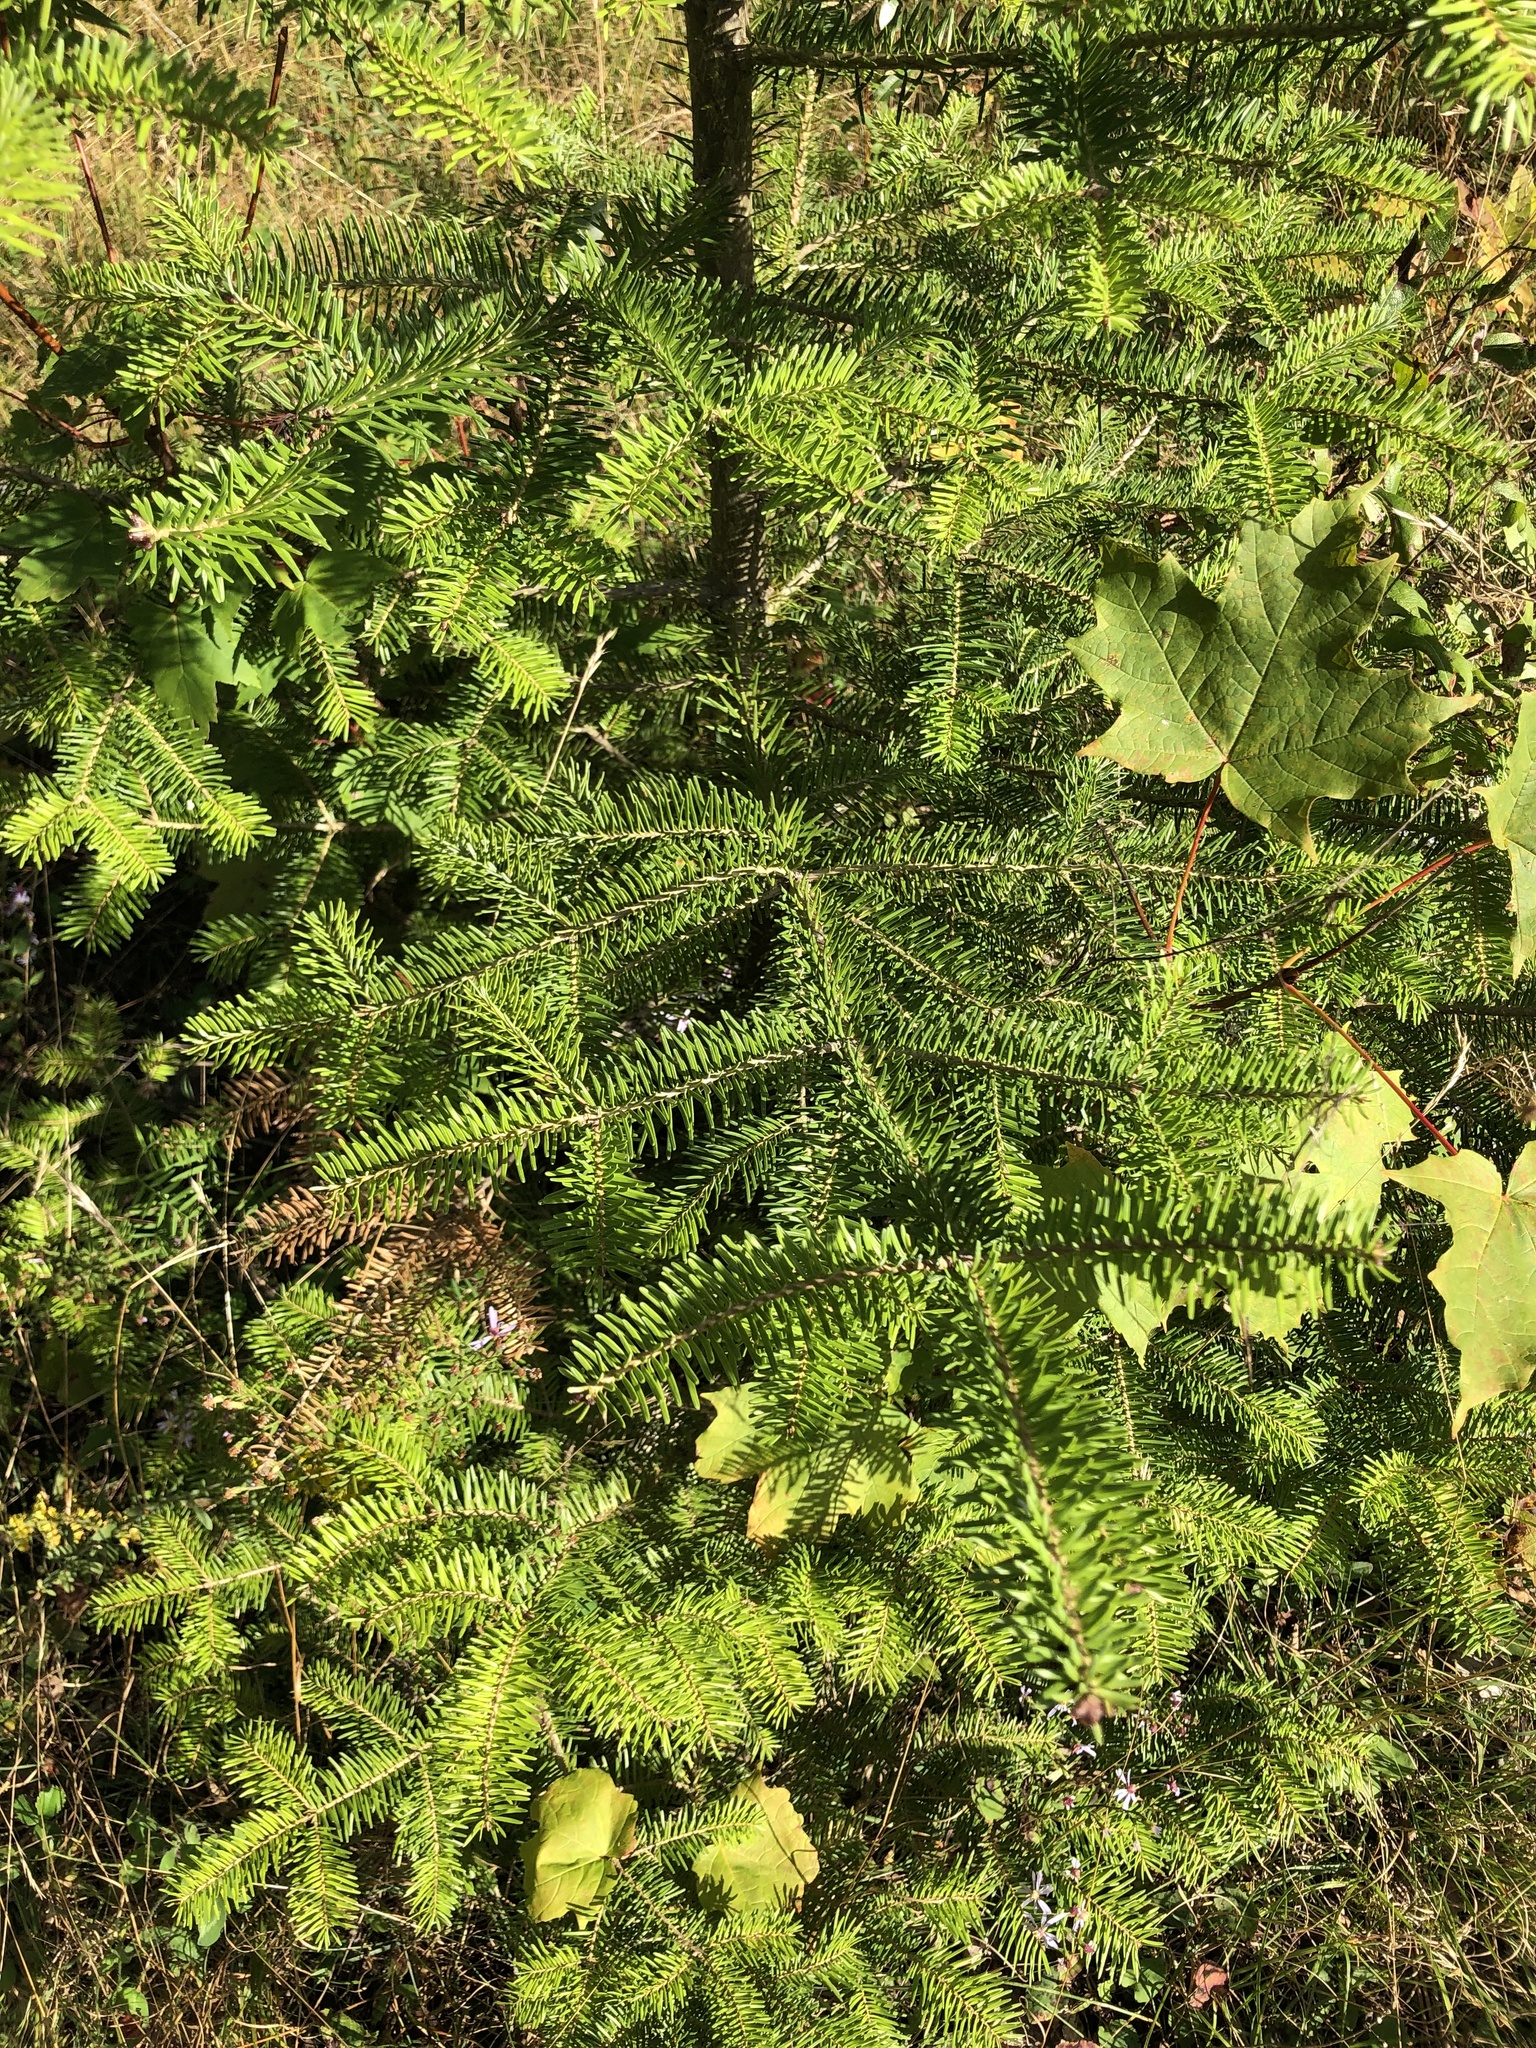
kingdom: Plantae
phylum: Tracheophyta
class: Pinopsida
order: Pinales
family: Pinaceae
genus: Abies
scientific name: Abies balsamea
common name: Balsam fir
